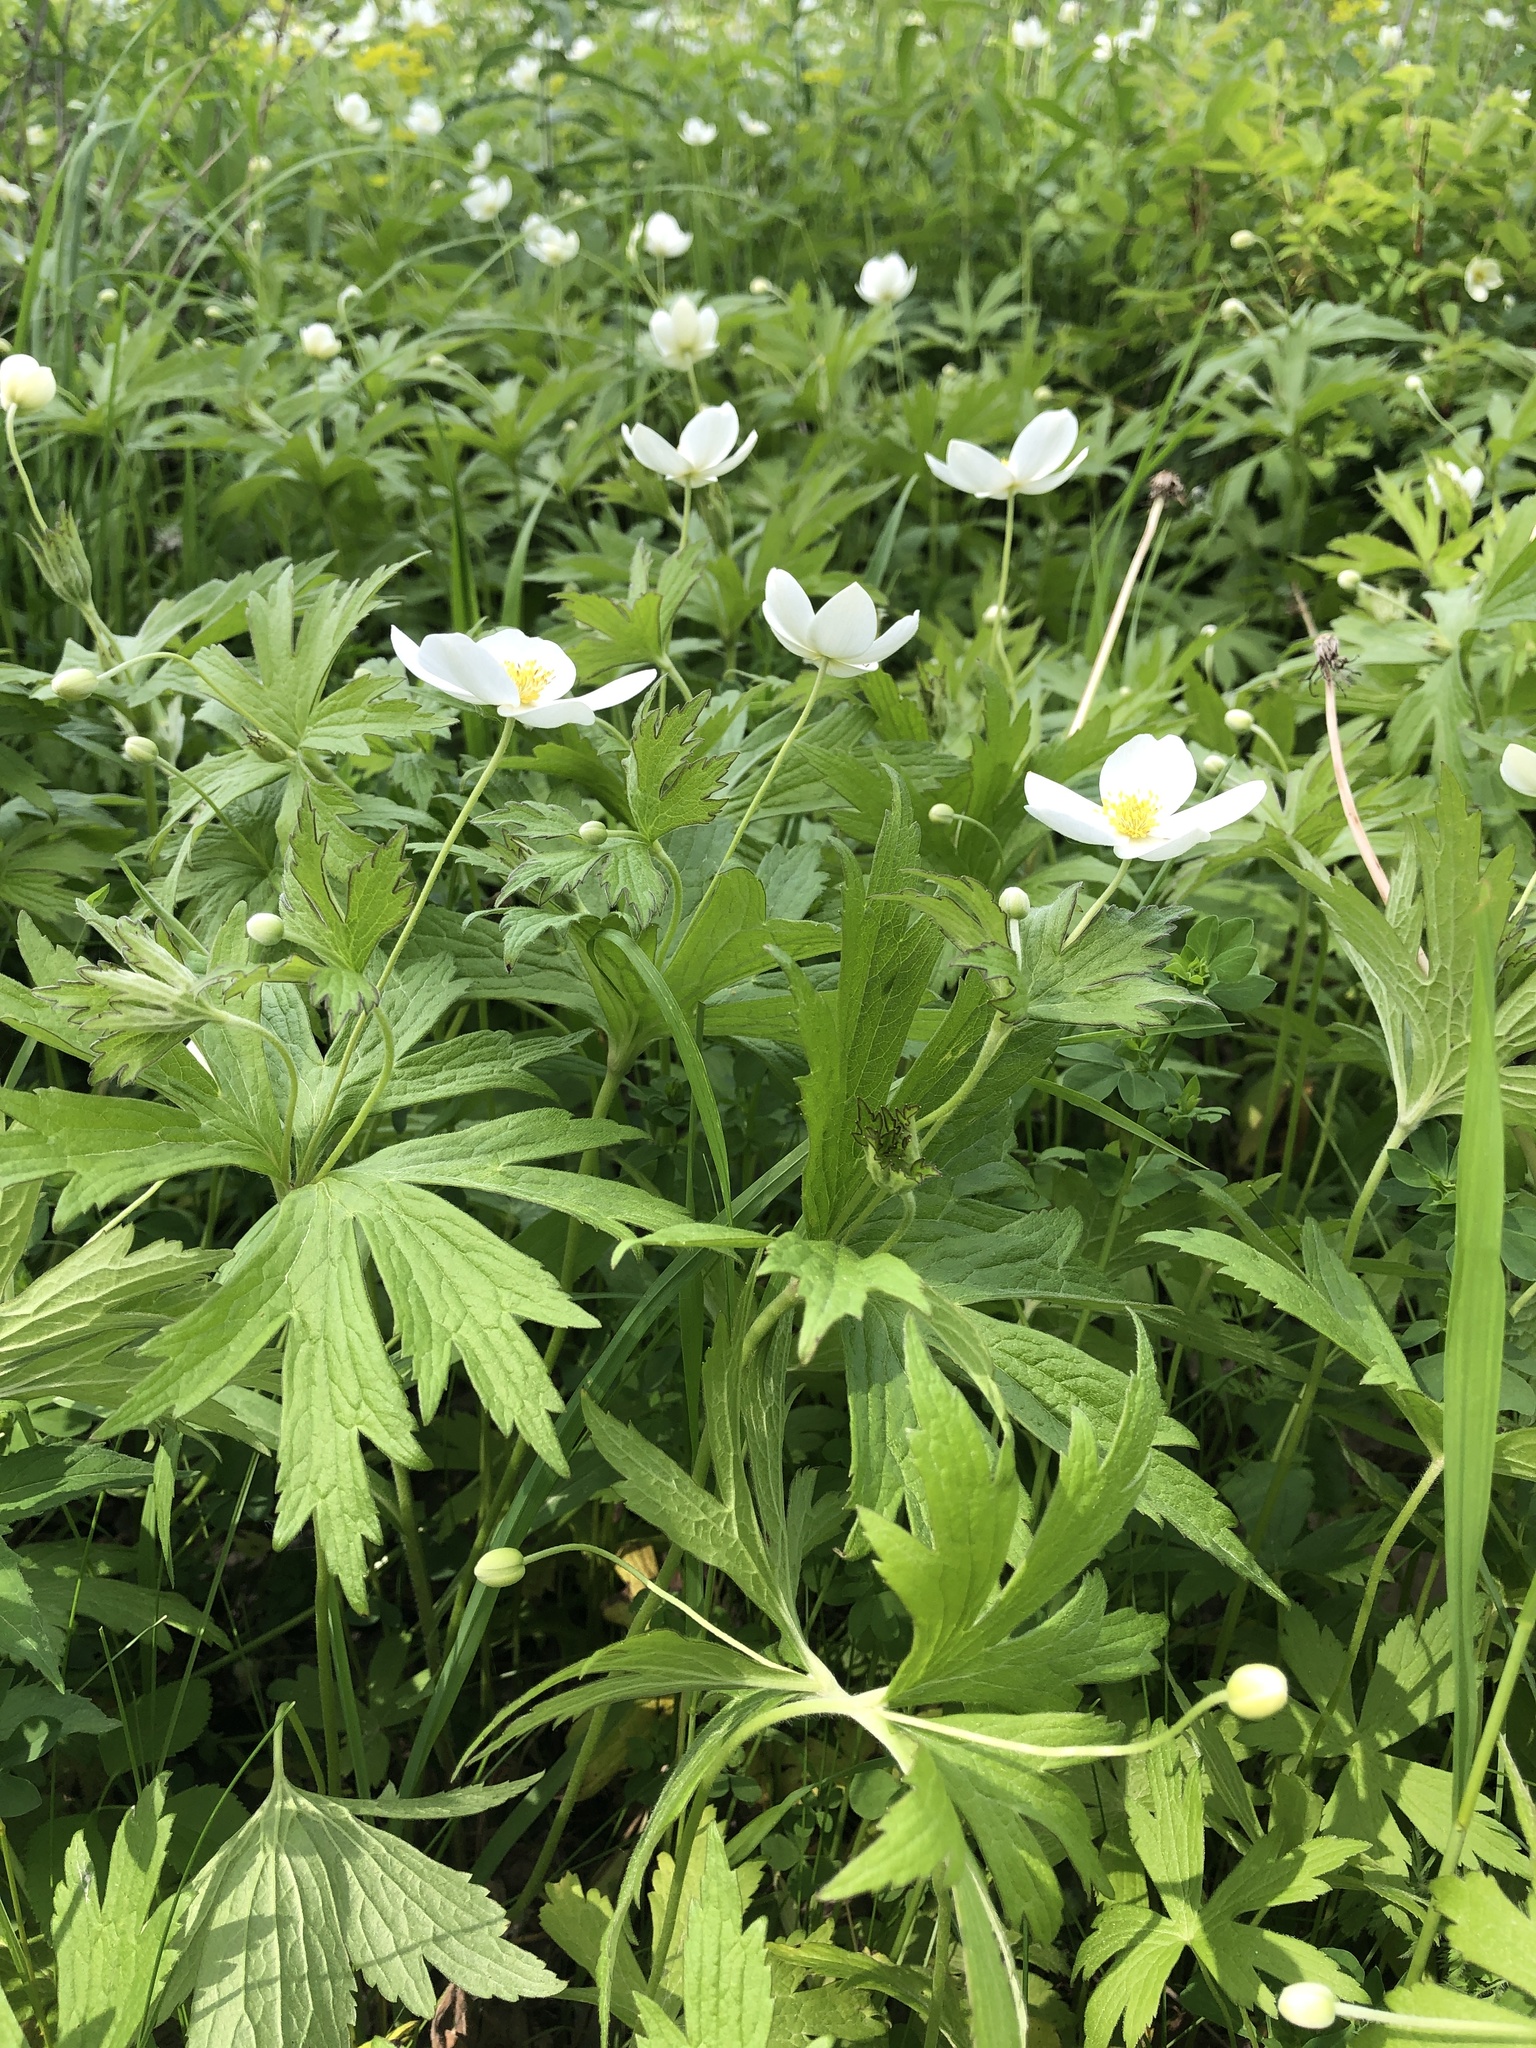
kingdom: Plantae
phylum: Tracheophyta
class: Magnoliopsida
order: Ranunculales
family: Ranunculaceae
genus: Anemonastrum
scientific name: Anemonastrum canadense
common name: Canada anemone
